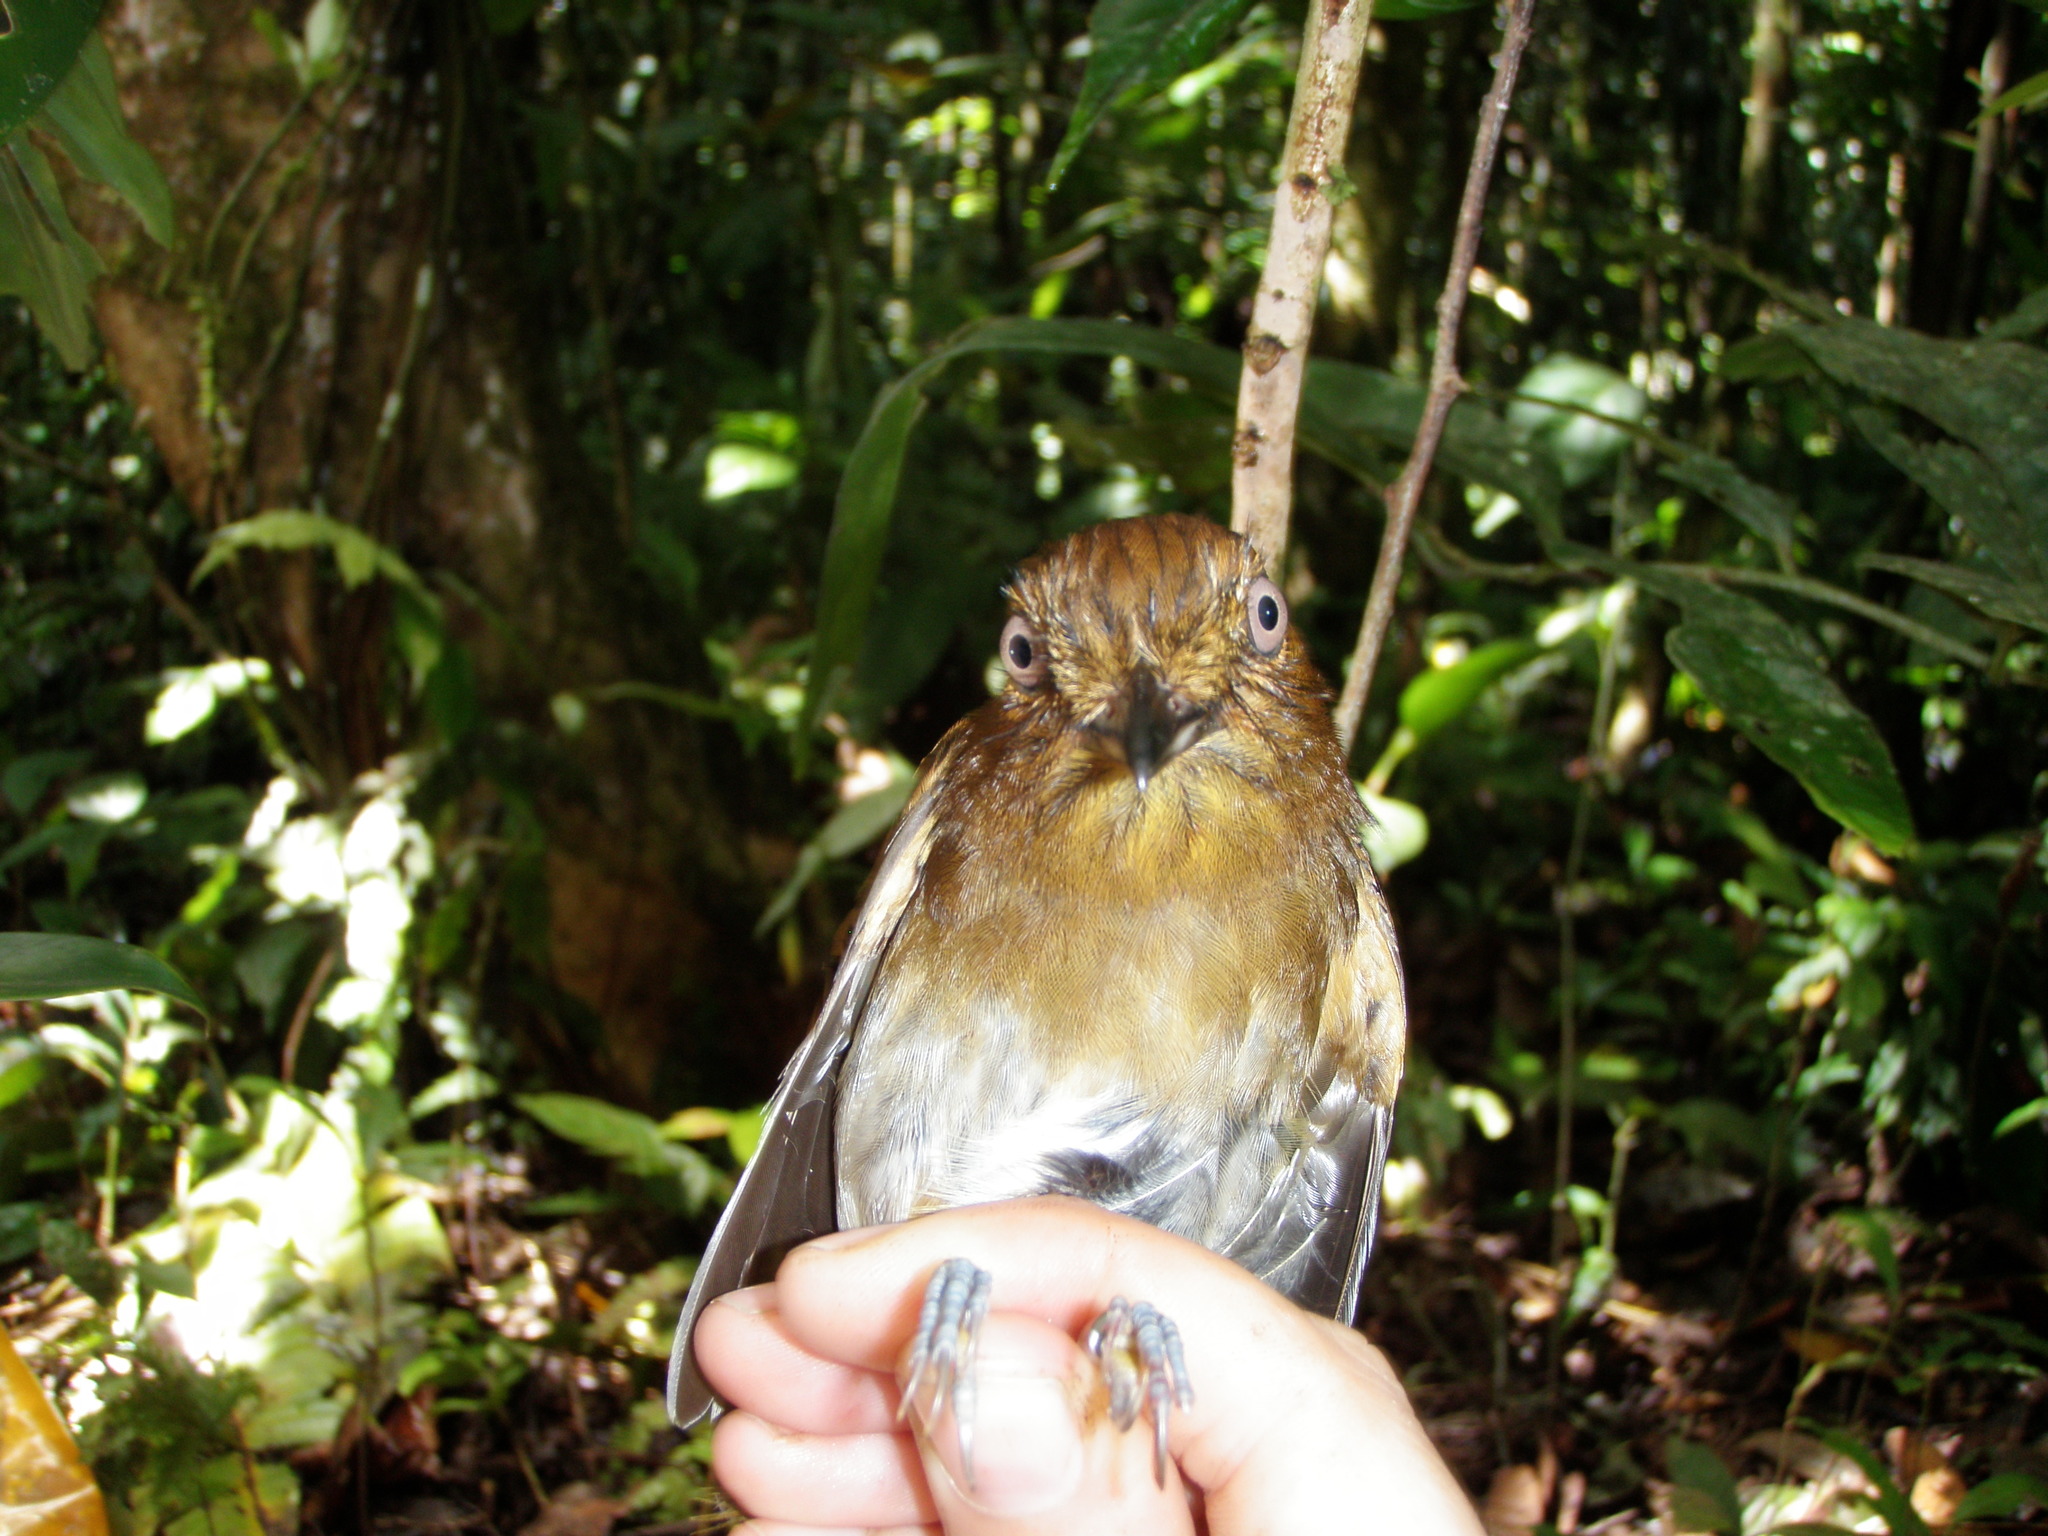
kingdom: Animalia
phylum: Chordata
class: Aves
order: Passeriformes
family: Tyrannidae
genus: Attila
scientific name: Attila spadiceus
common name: Bright-rumped attila
